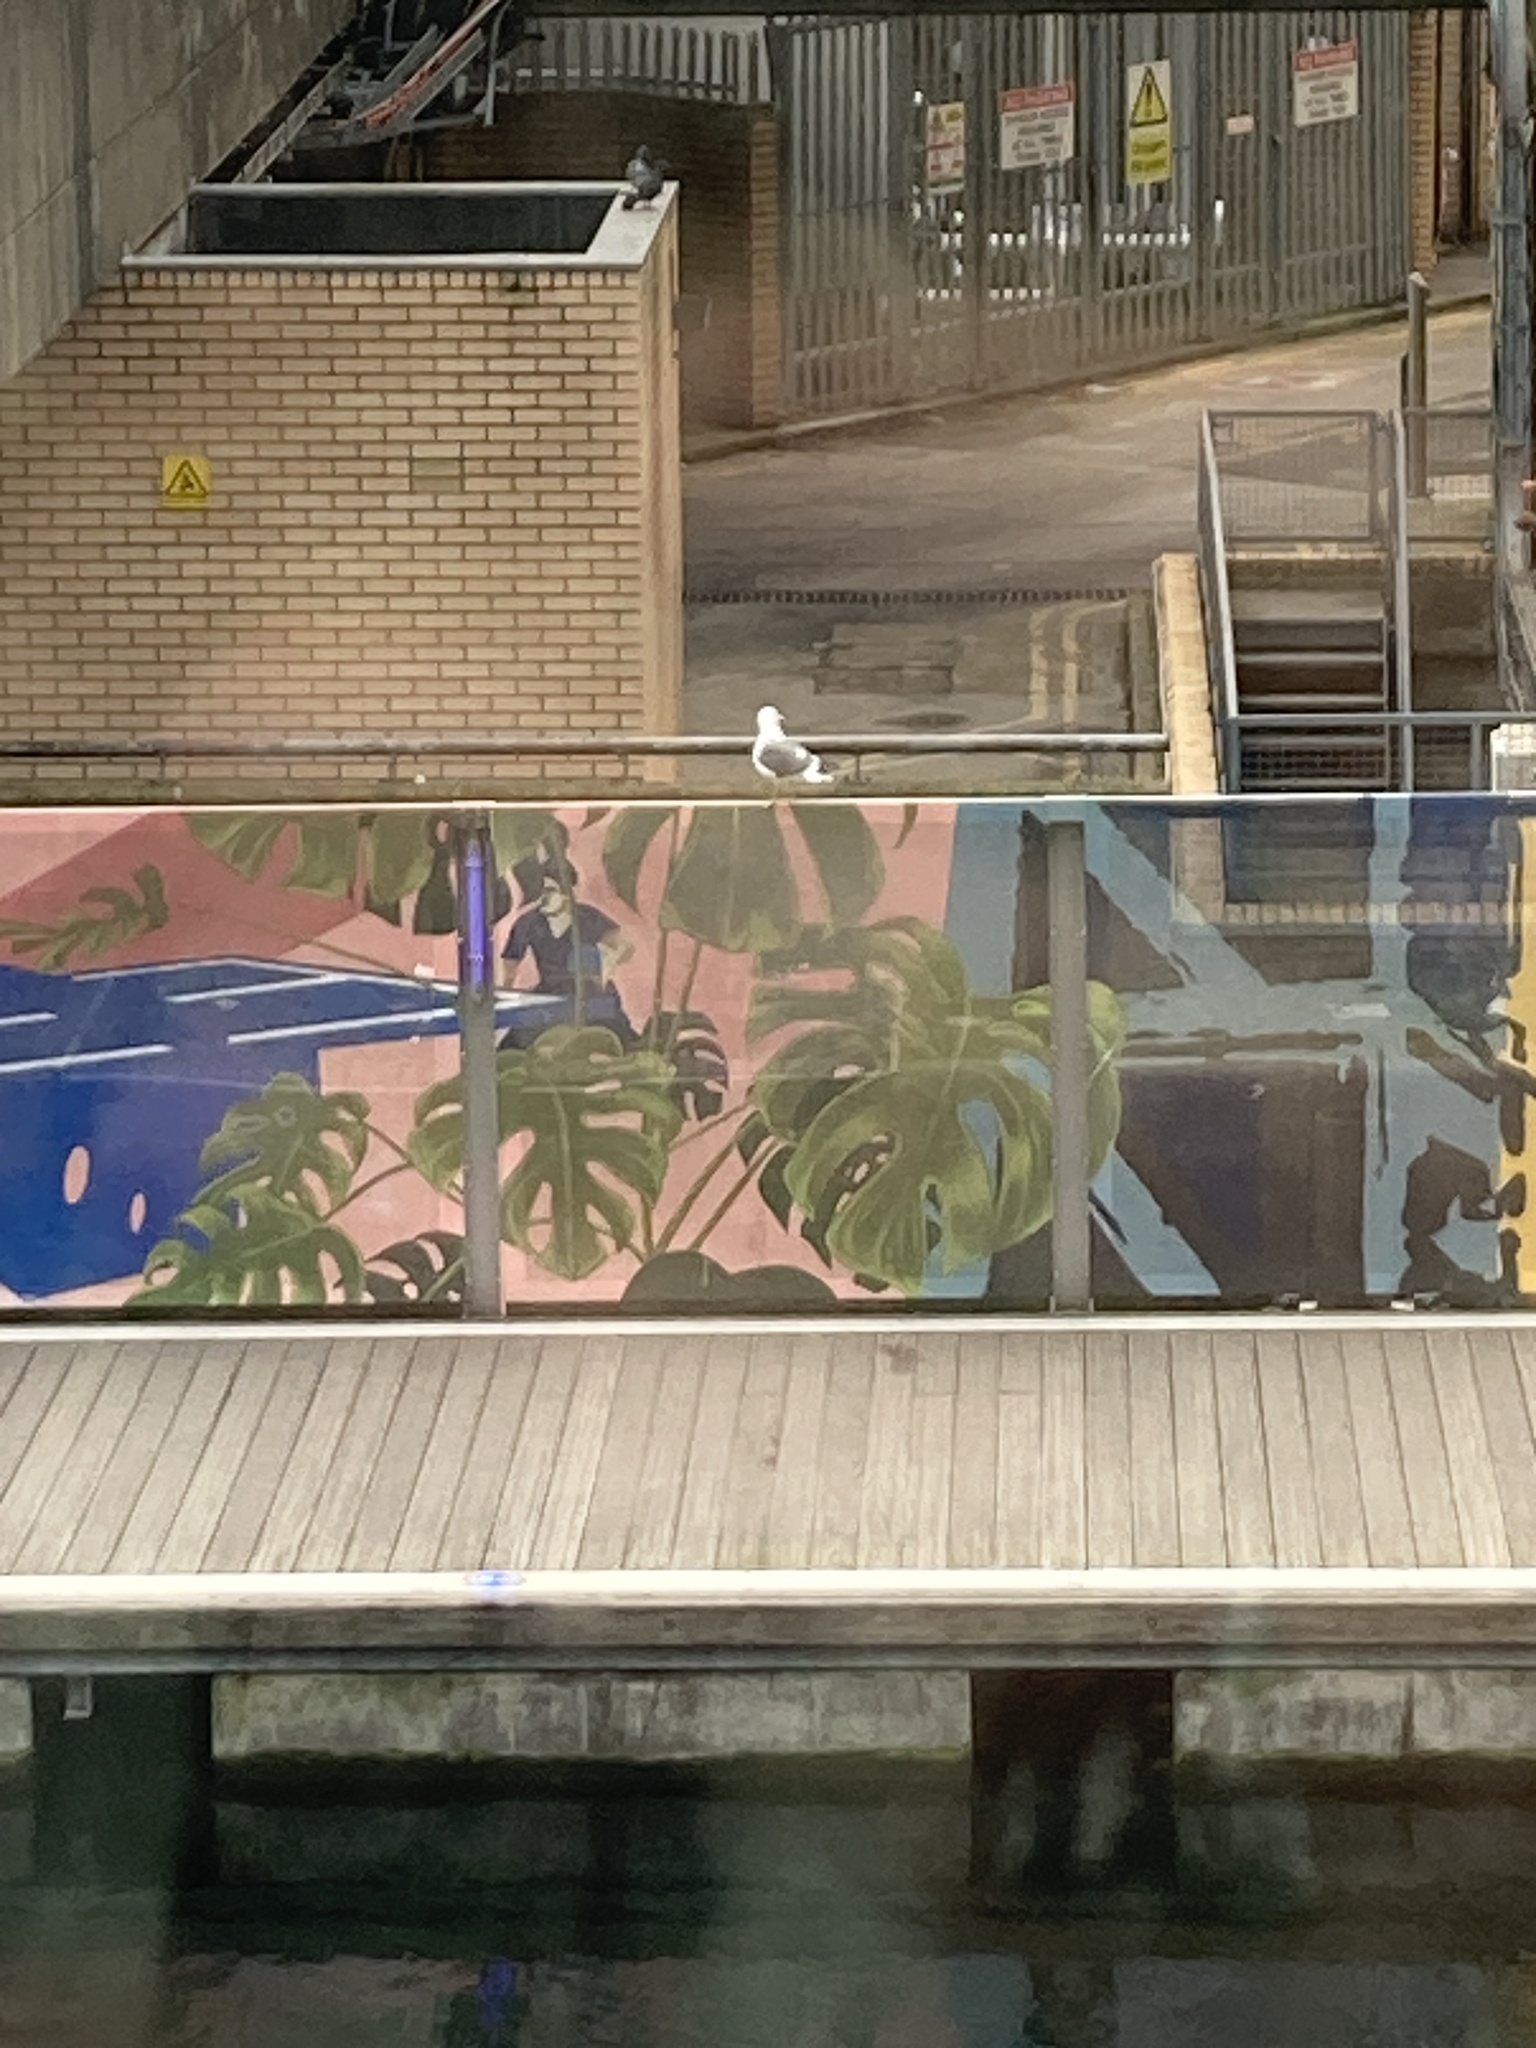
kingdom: Animalia
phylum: Chordata
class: Aves
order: Charadriiformes
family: Laridae
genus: Larus
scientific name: Larus fuscus
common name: Lesser black-backed gull
